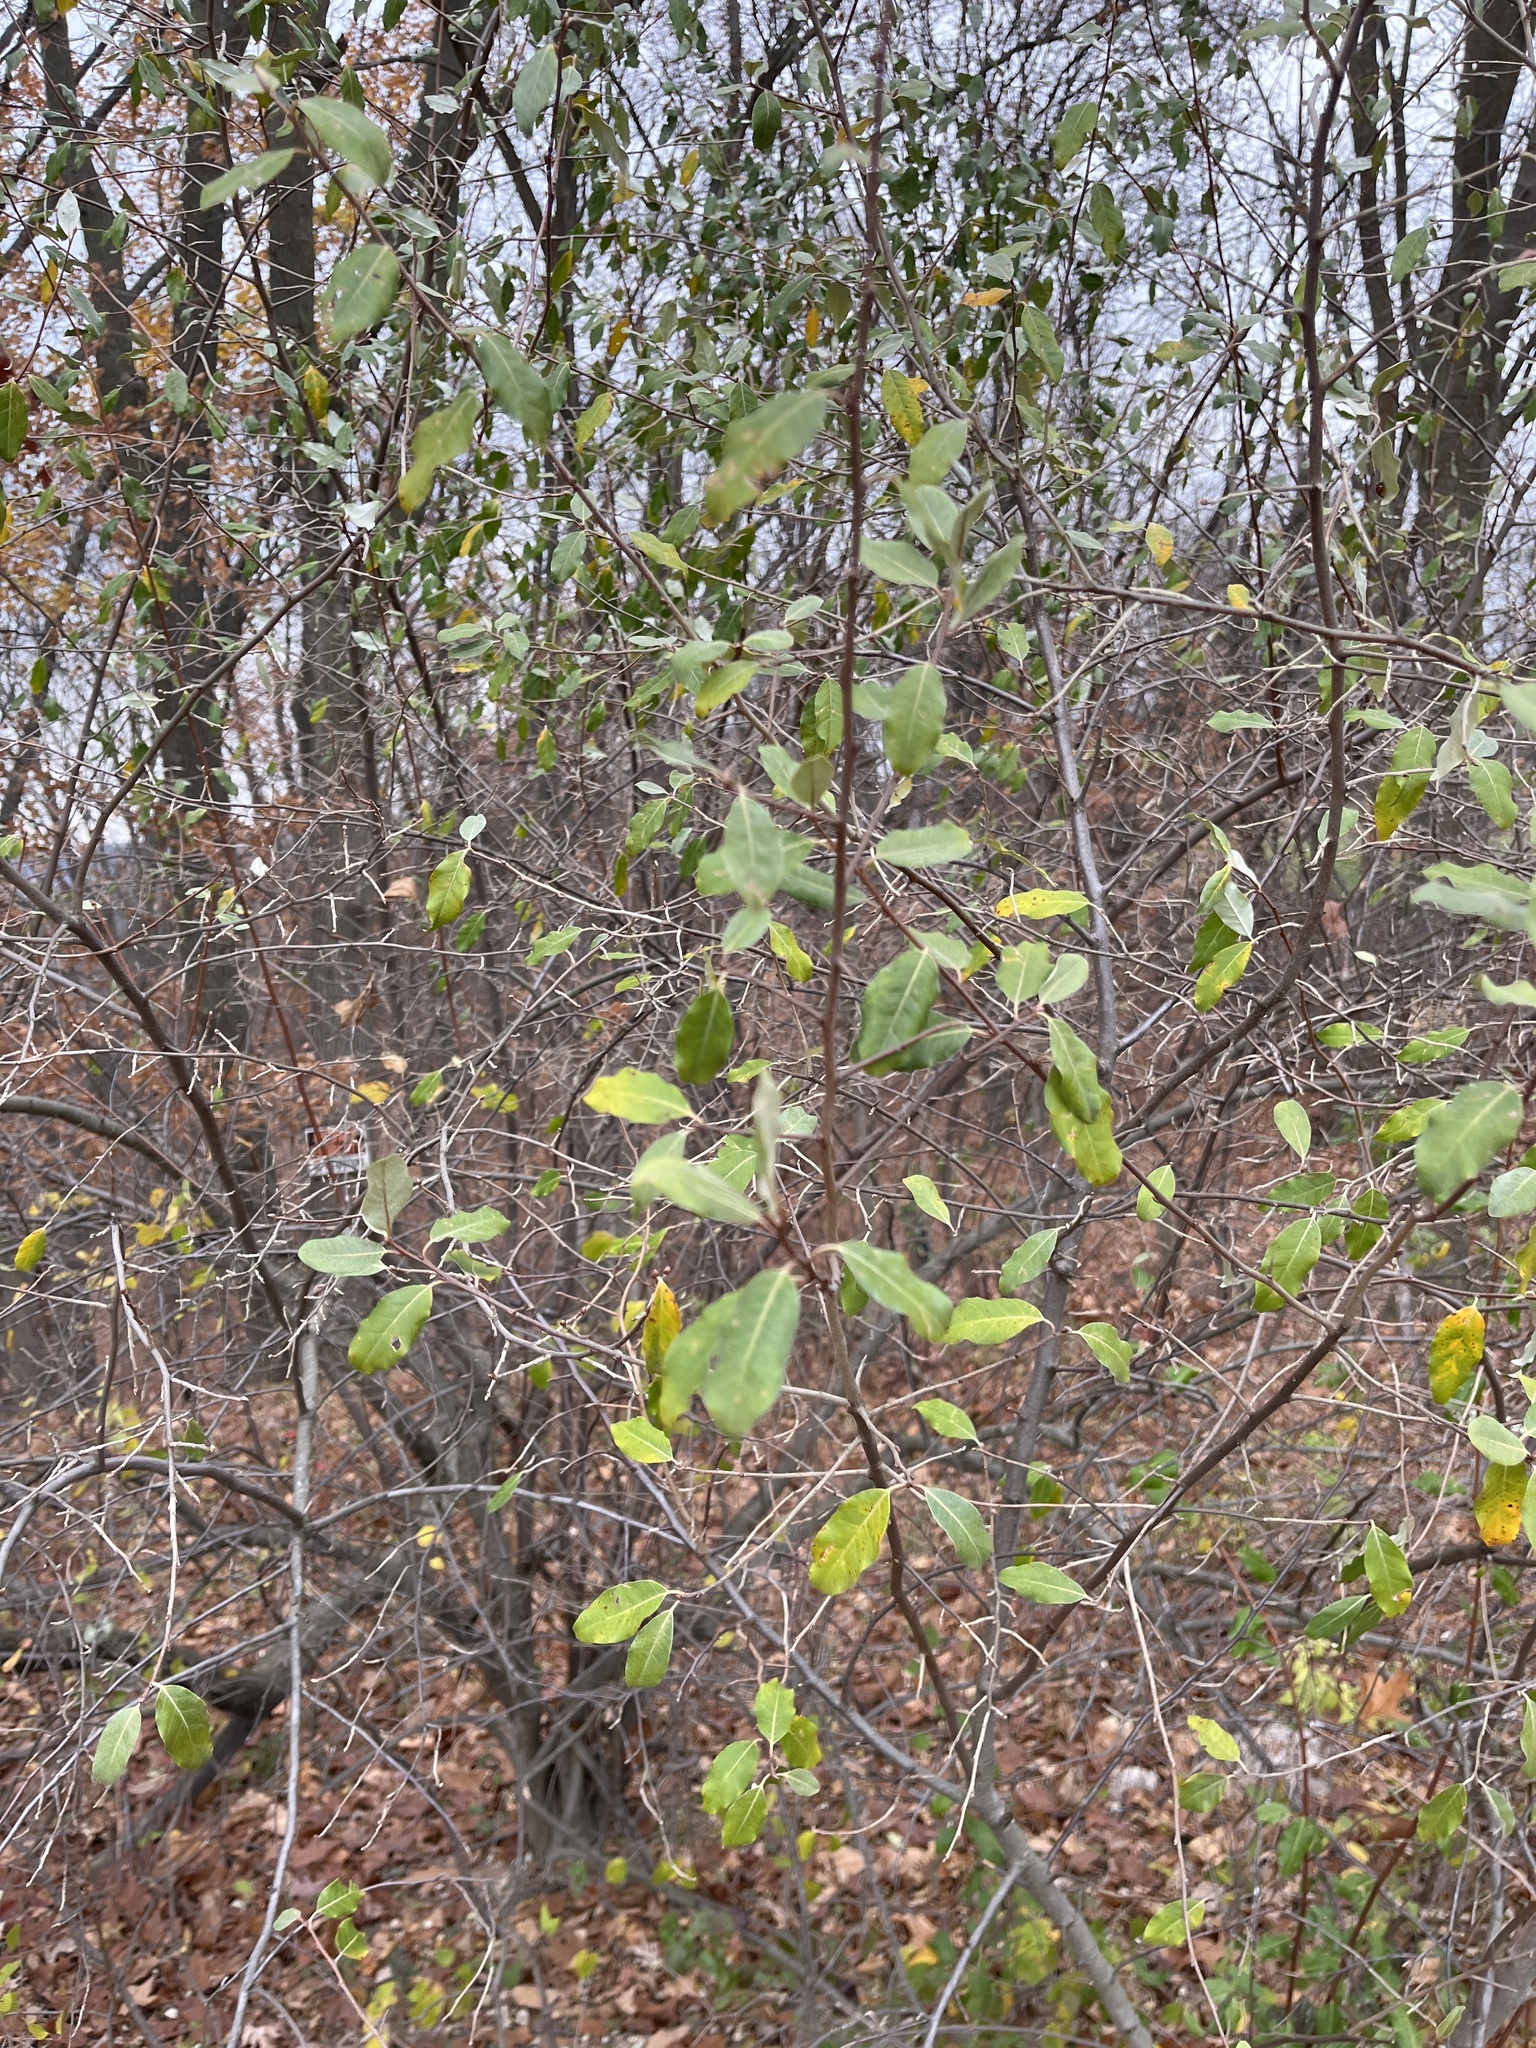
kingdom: Plantae
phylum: Tracheophyta
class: Magnoliopsida
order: Rosales
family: Elaeagnaceae
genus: Elaeagnus
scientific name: Elaeagnus umbellata
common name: Autumn olive
